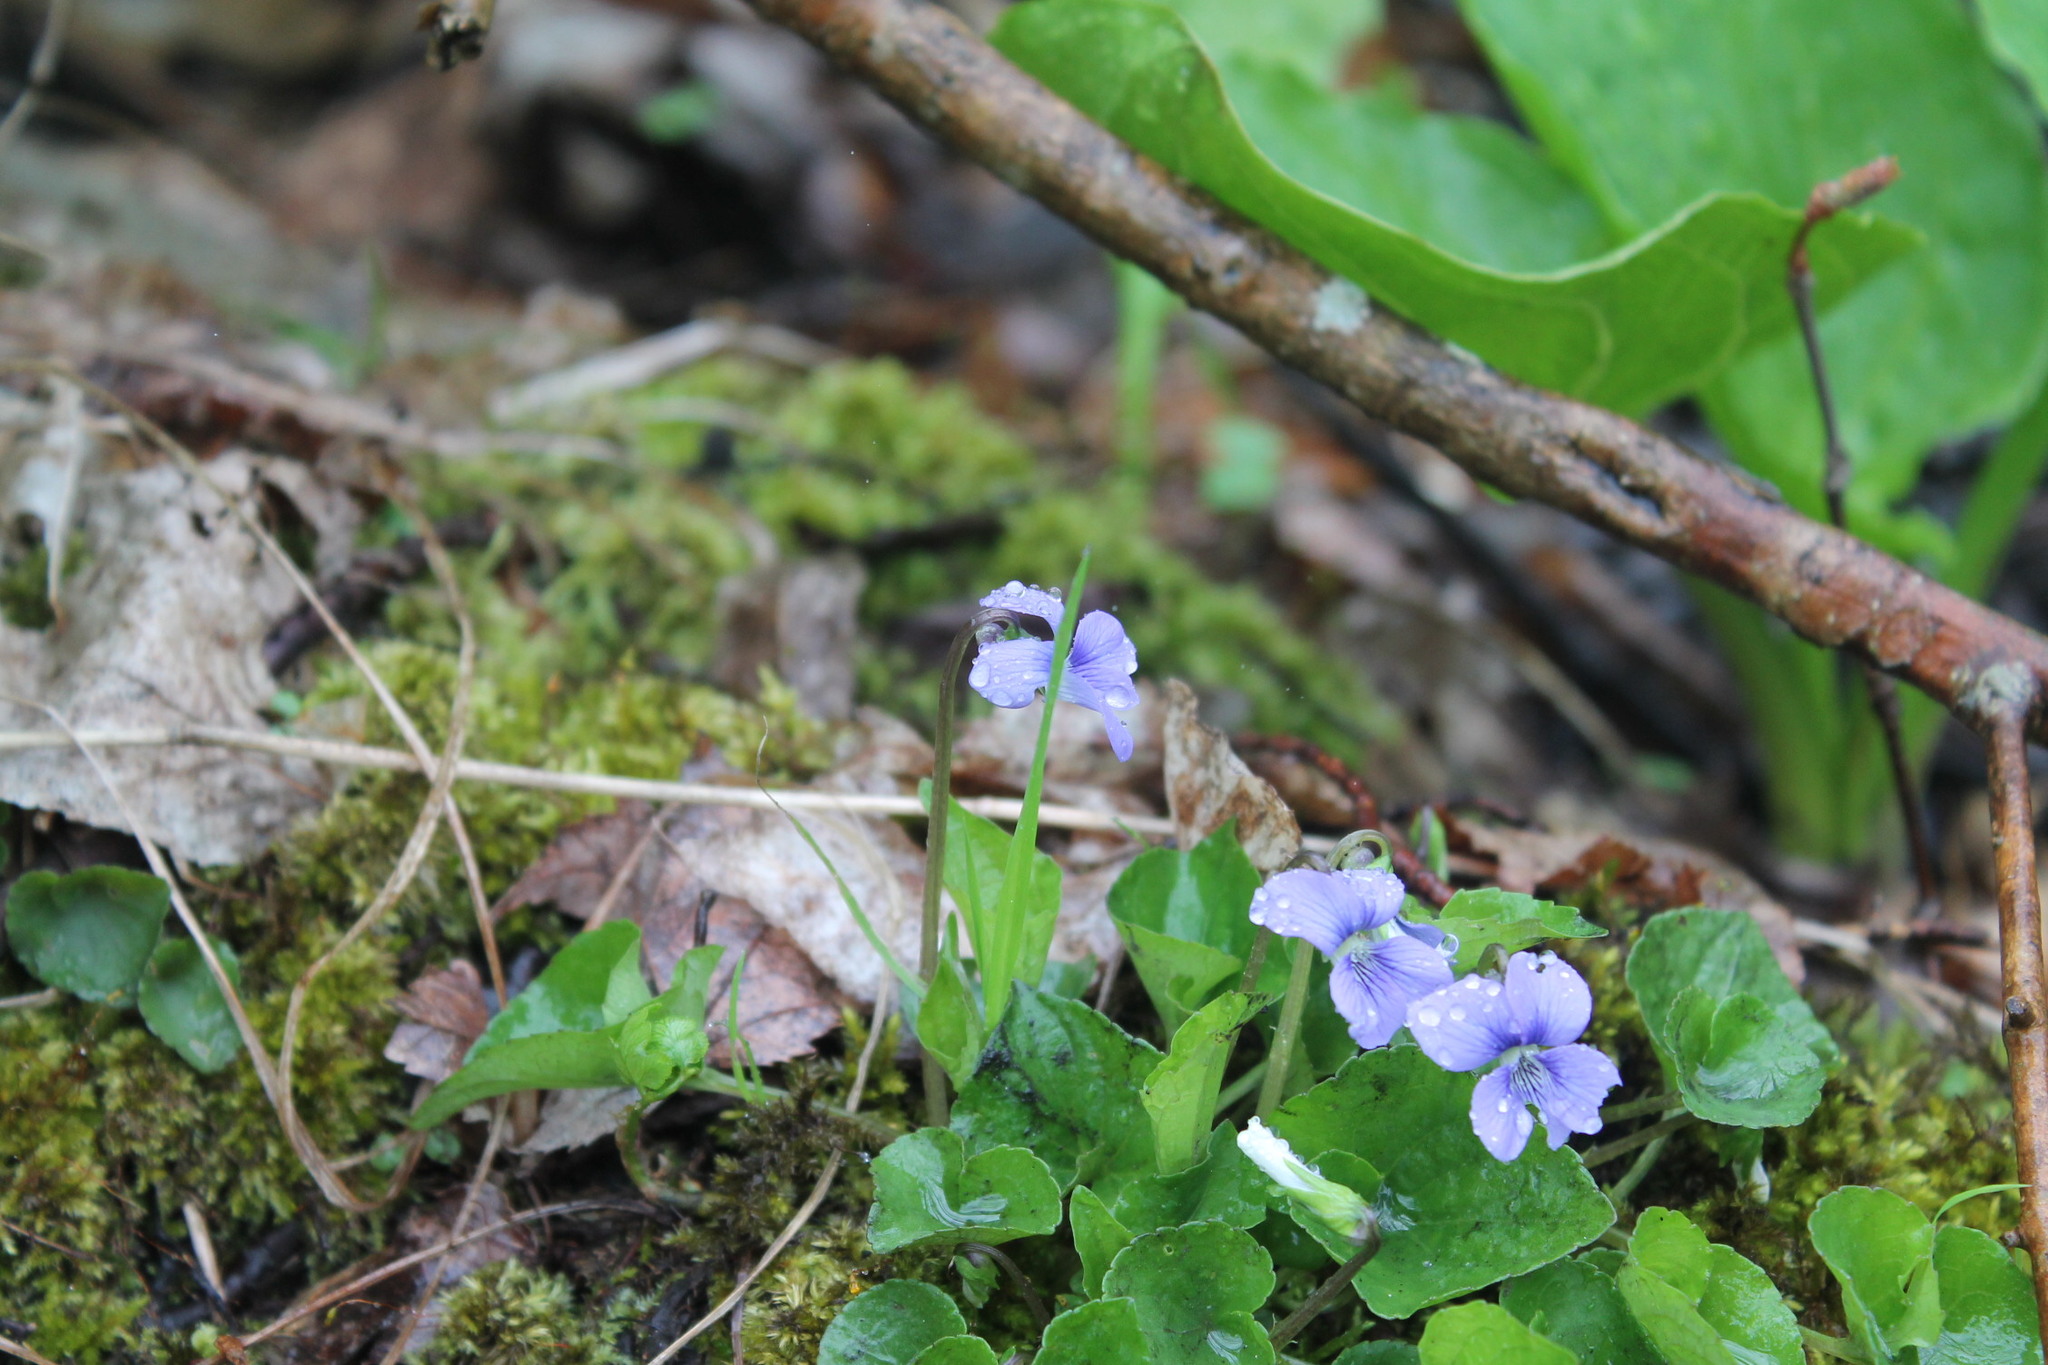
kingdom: Plantae
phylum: Tracheophyta
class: Magnoliopsida
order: Malpighiales
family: Violaceae
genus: Viola
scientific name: Viola cucullata
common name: Marsh blue violet
